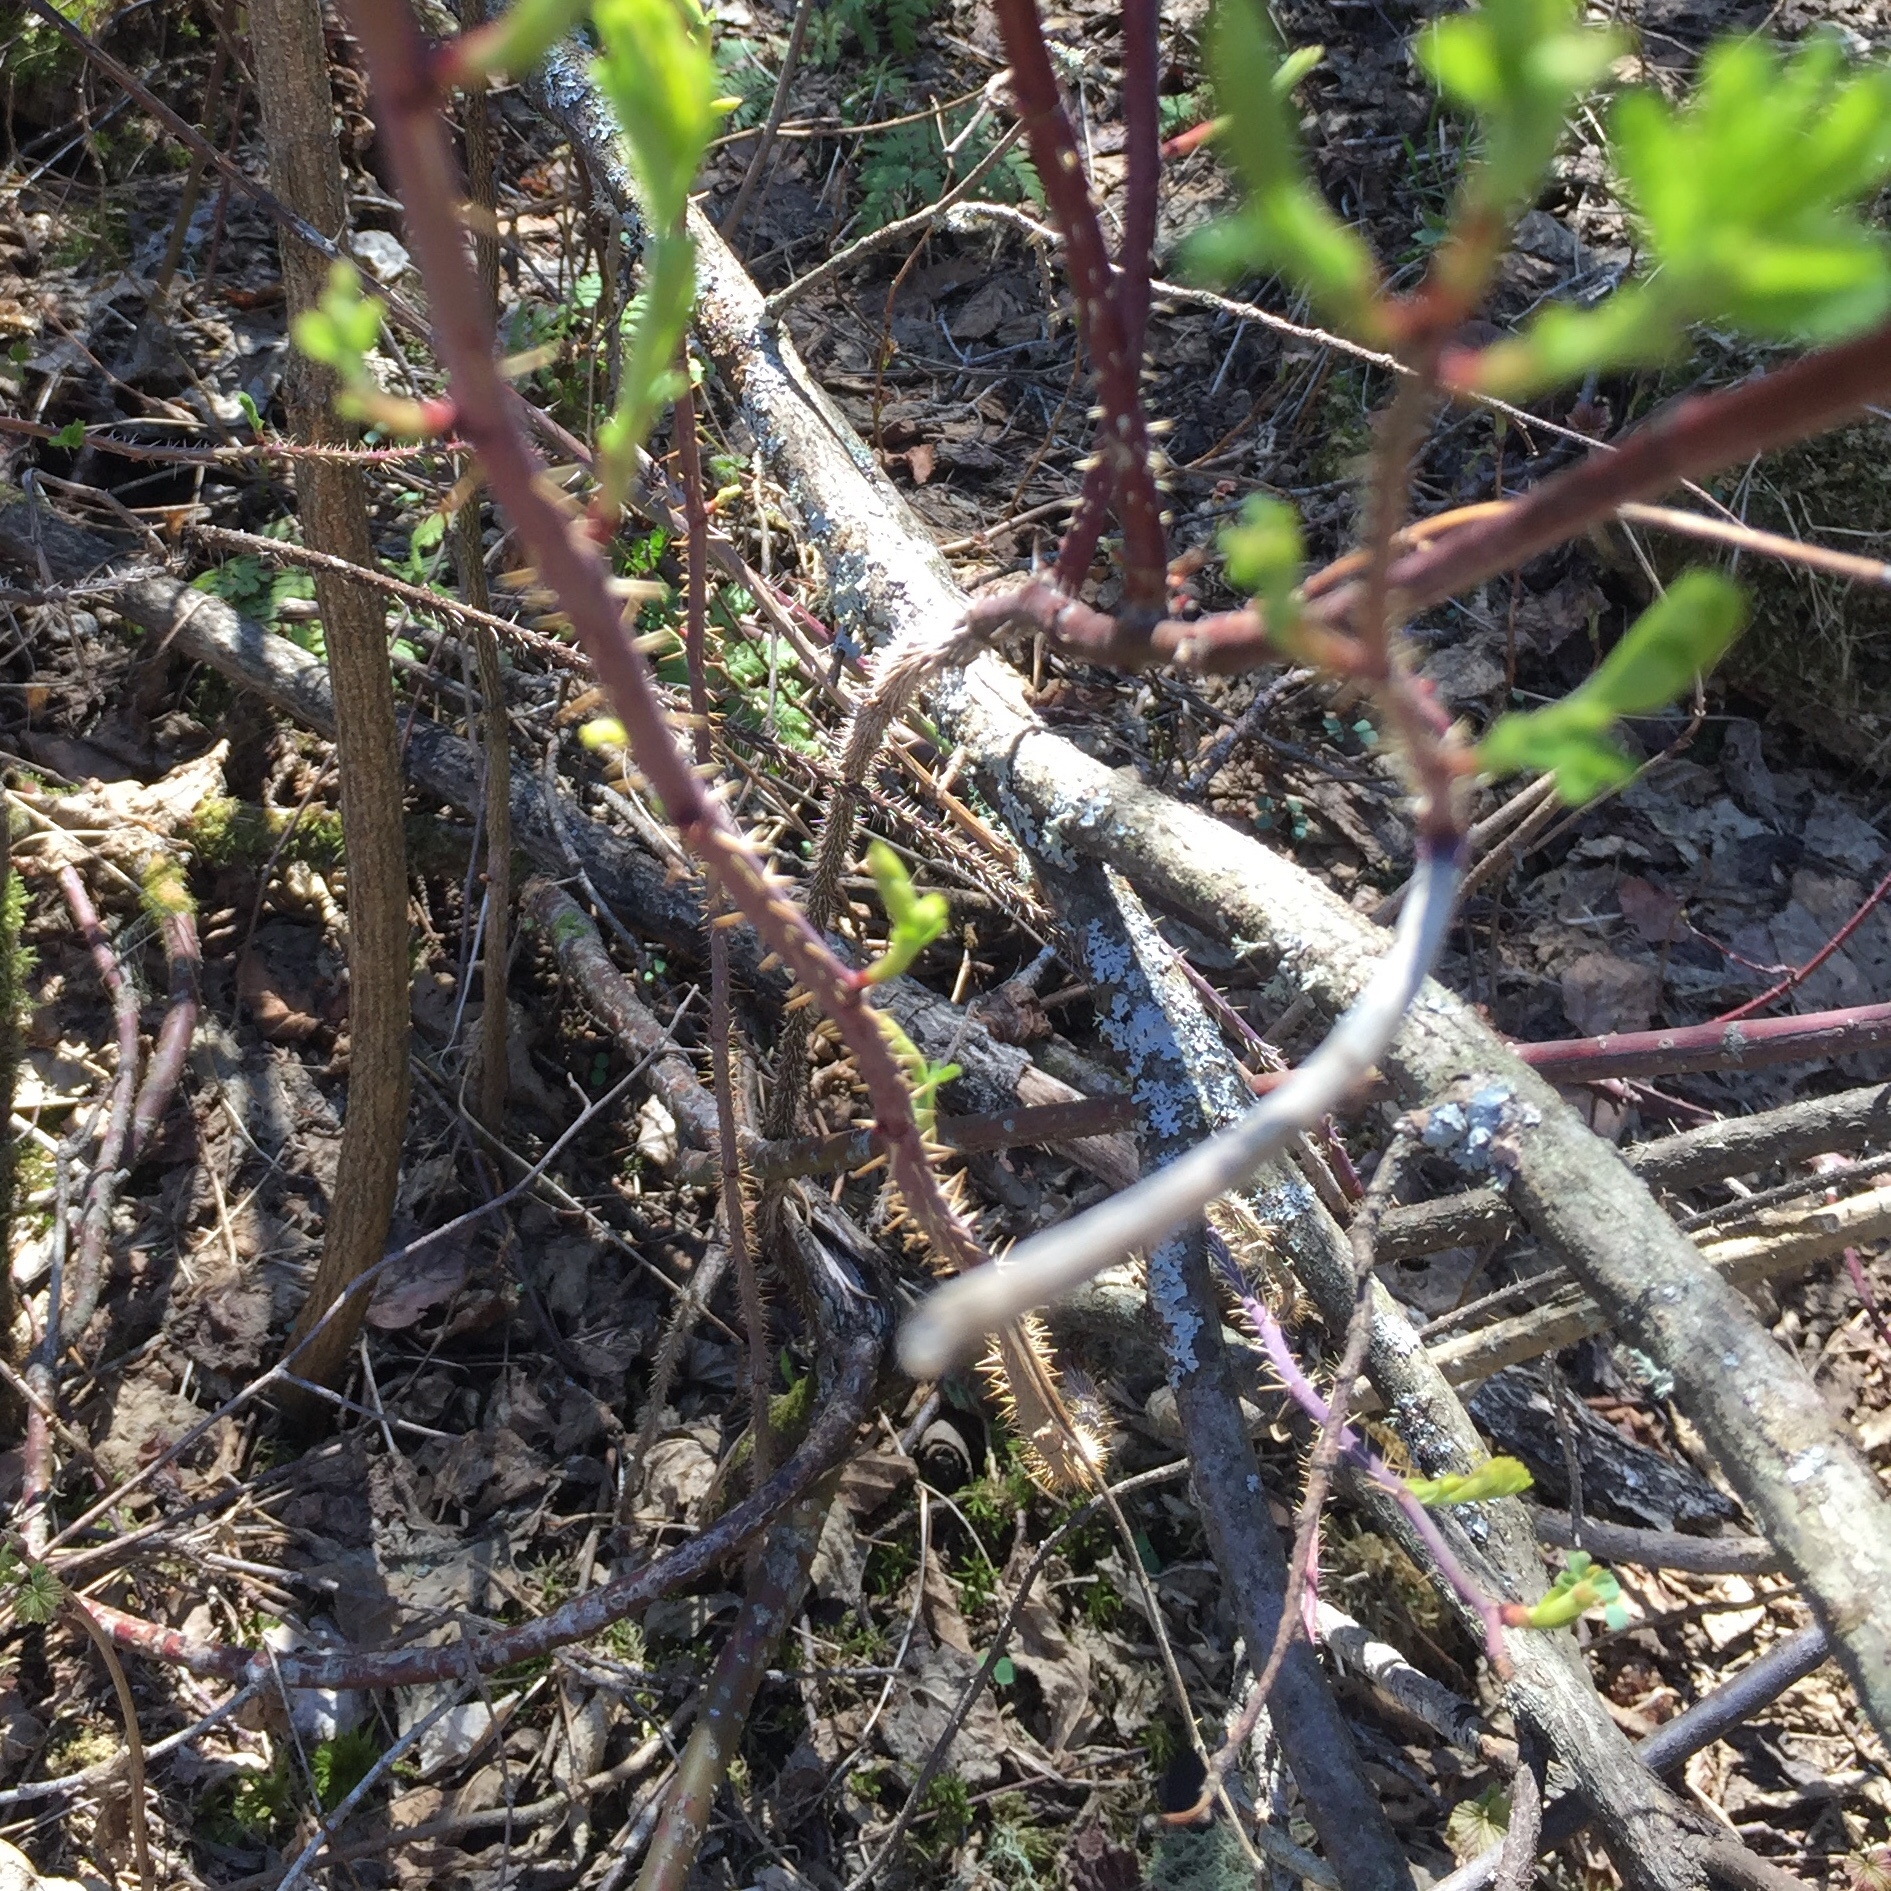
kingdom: Plantae
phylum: Tracheophyta
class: Magnoliopsida
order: Rosales
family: Rosaceae
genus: Rosa
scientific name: Rosa acicularis
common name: Prickly rose
